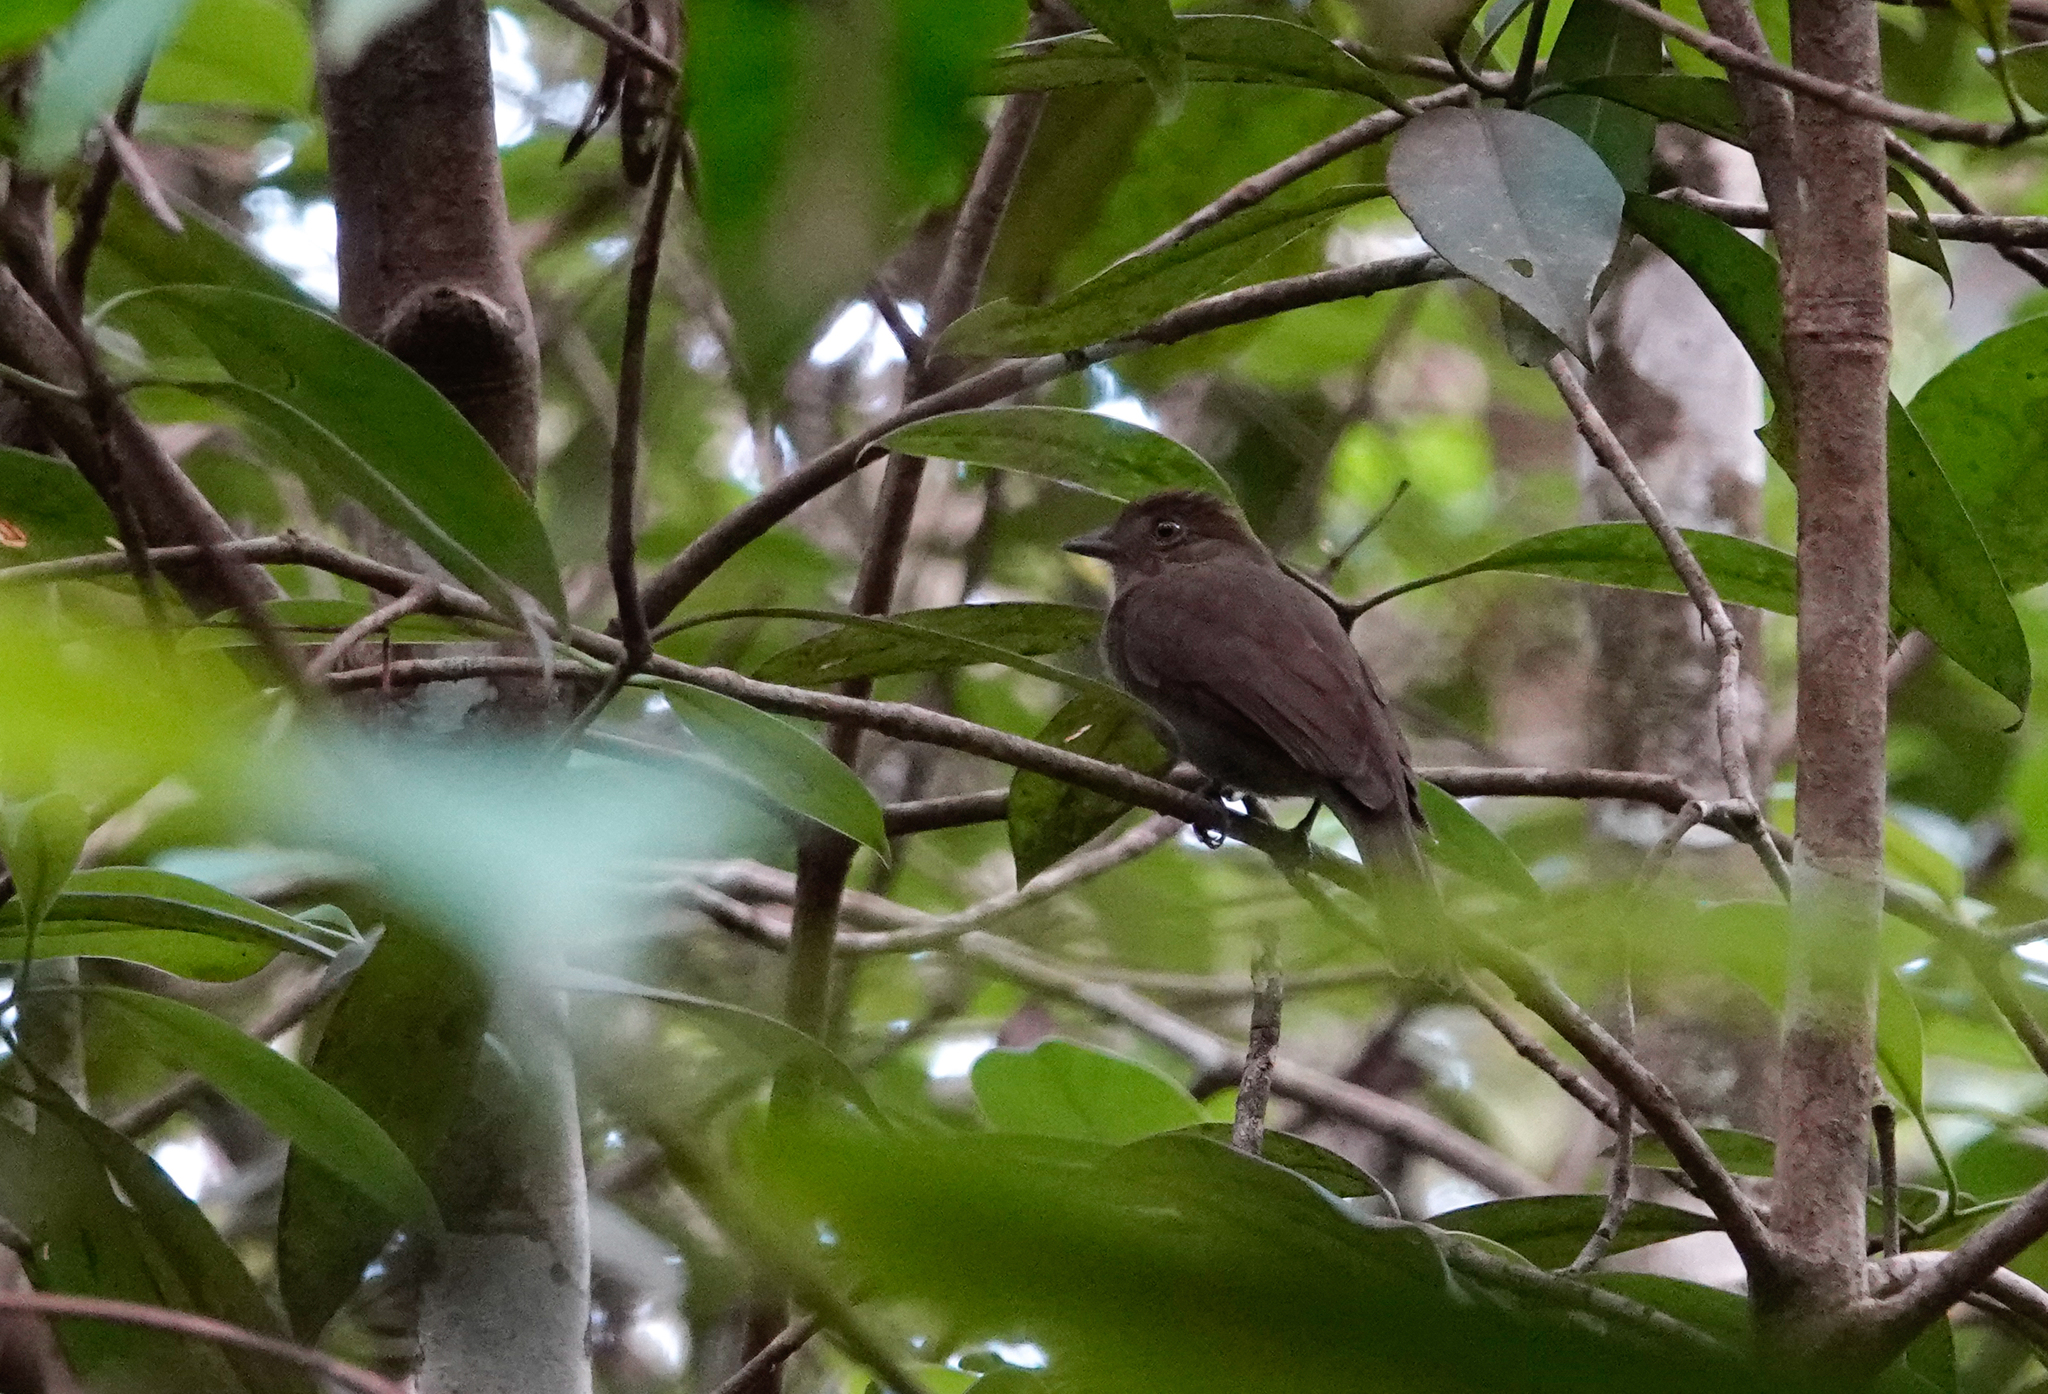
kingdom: Animalia
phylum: Chordata
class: Aves
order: Passeriformes
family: Cotingidae
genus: Schiffornis
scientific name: Schiffornis turdina
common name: Brown-winged schiffornis
